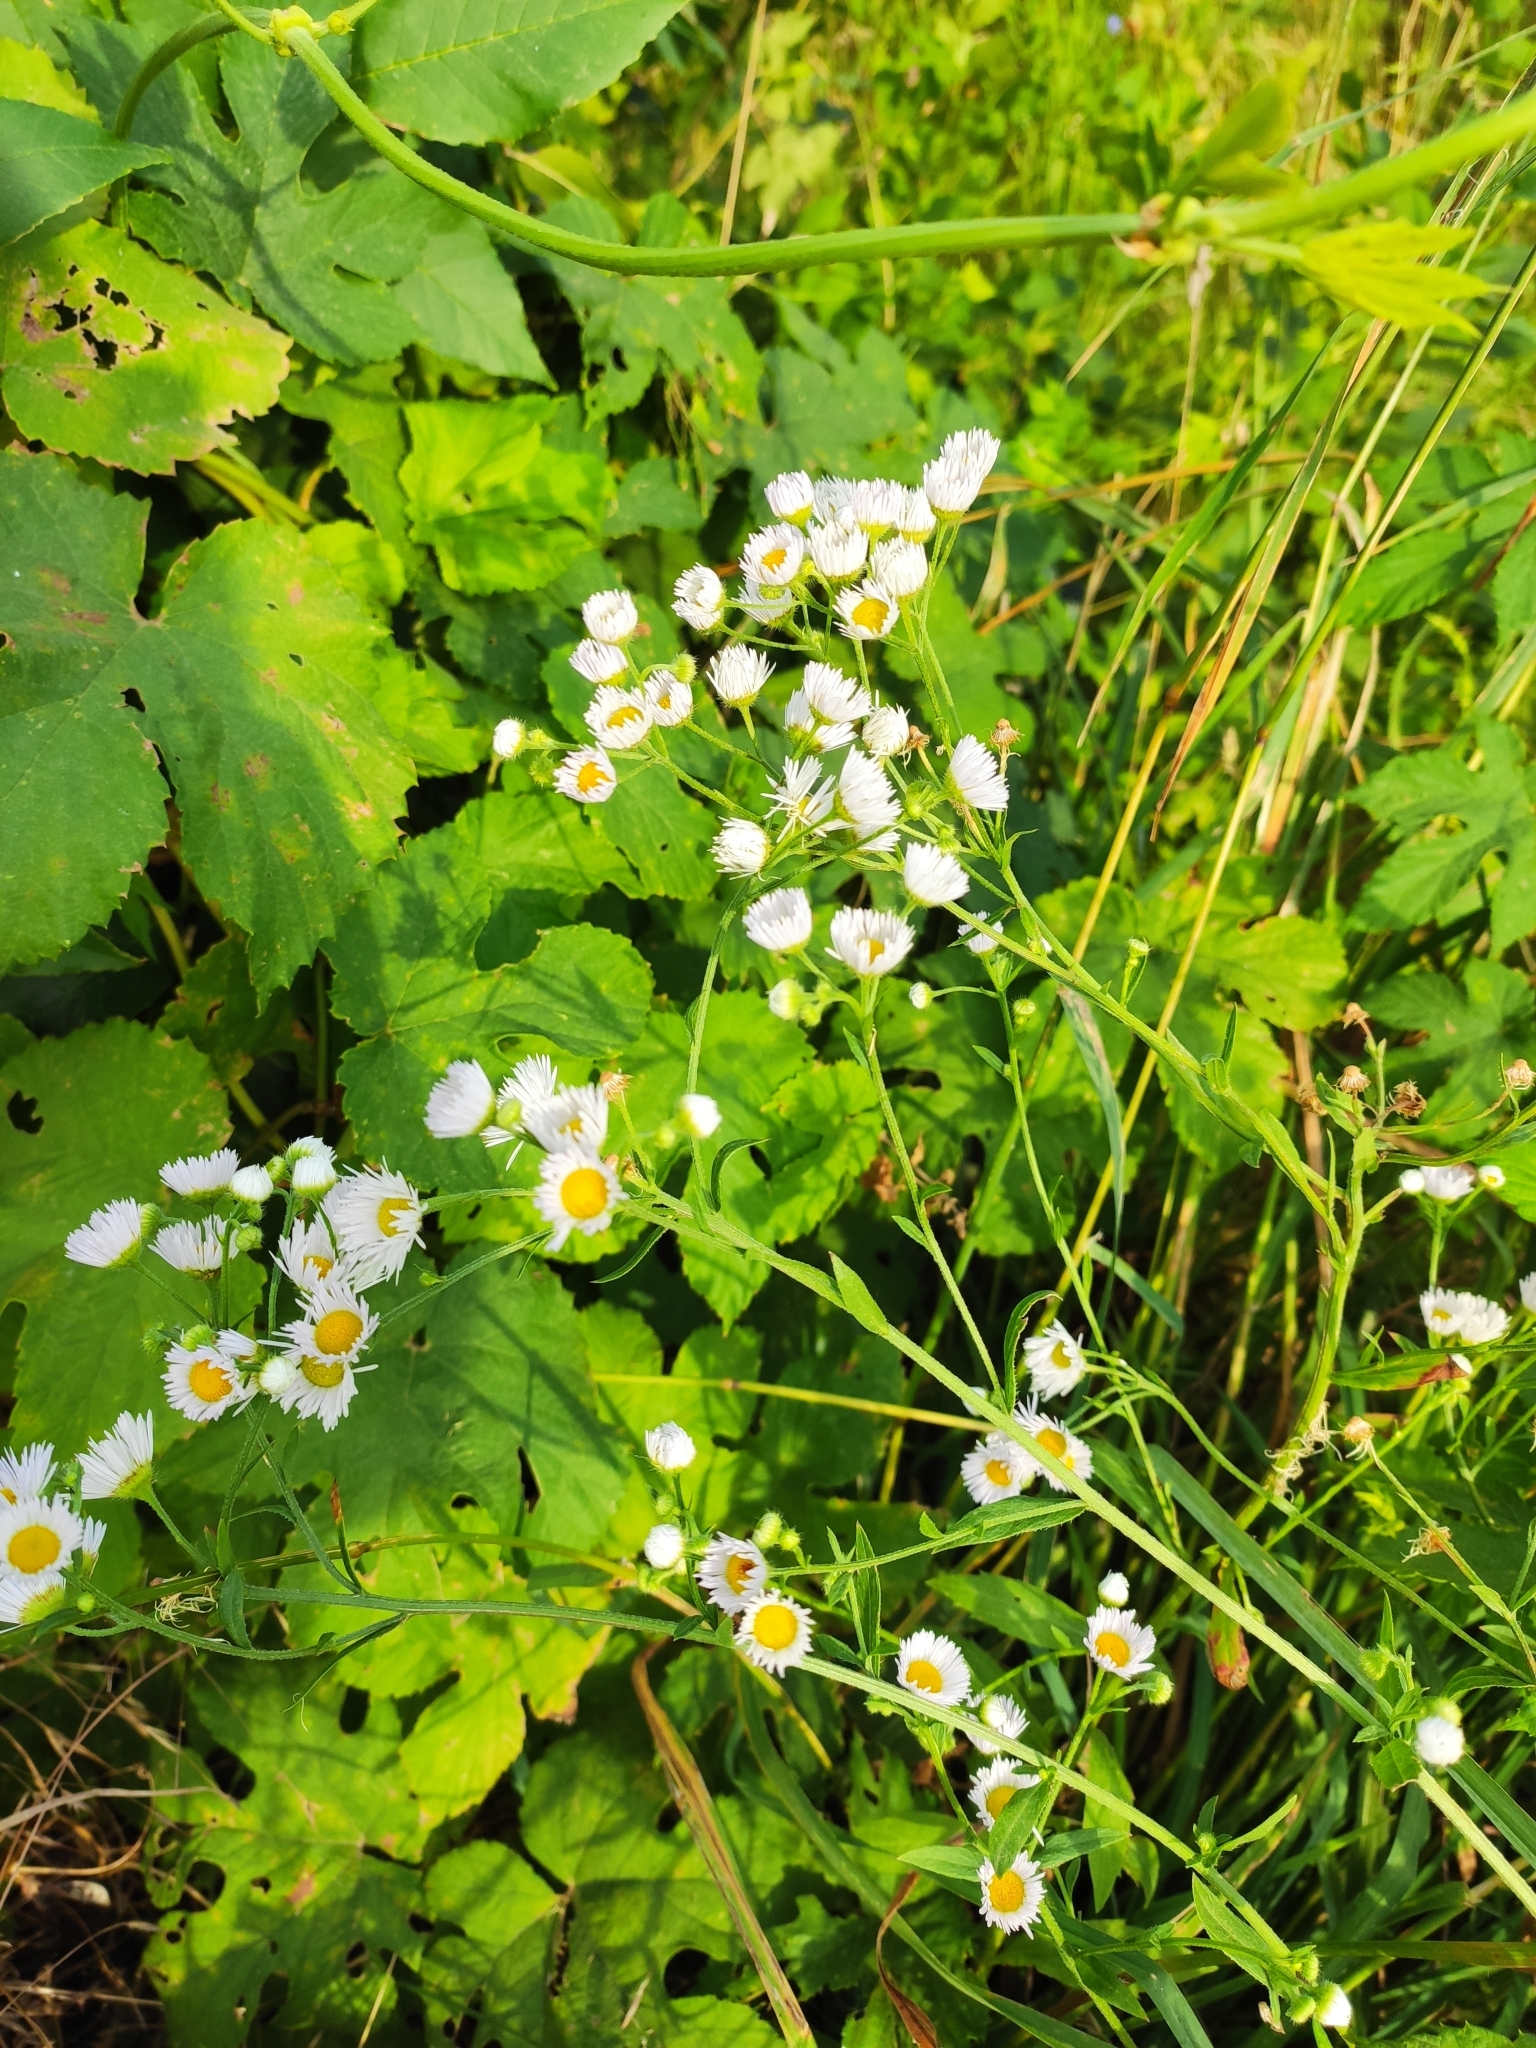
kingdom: Plantae
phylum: Tracheophyta
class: Magnoliopsida
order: Asterales
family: Asteraceae
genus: Erigeron
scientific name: Erigeron annuus
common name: Tall fleabane
